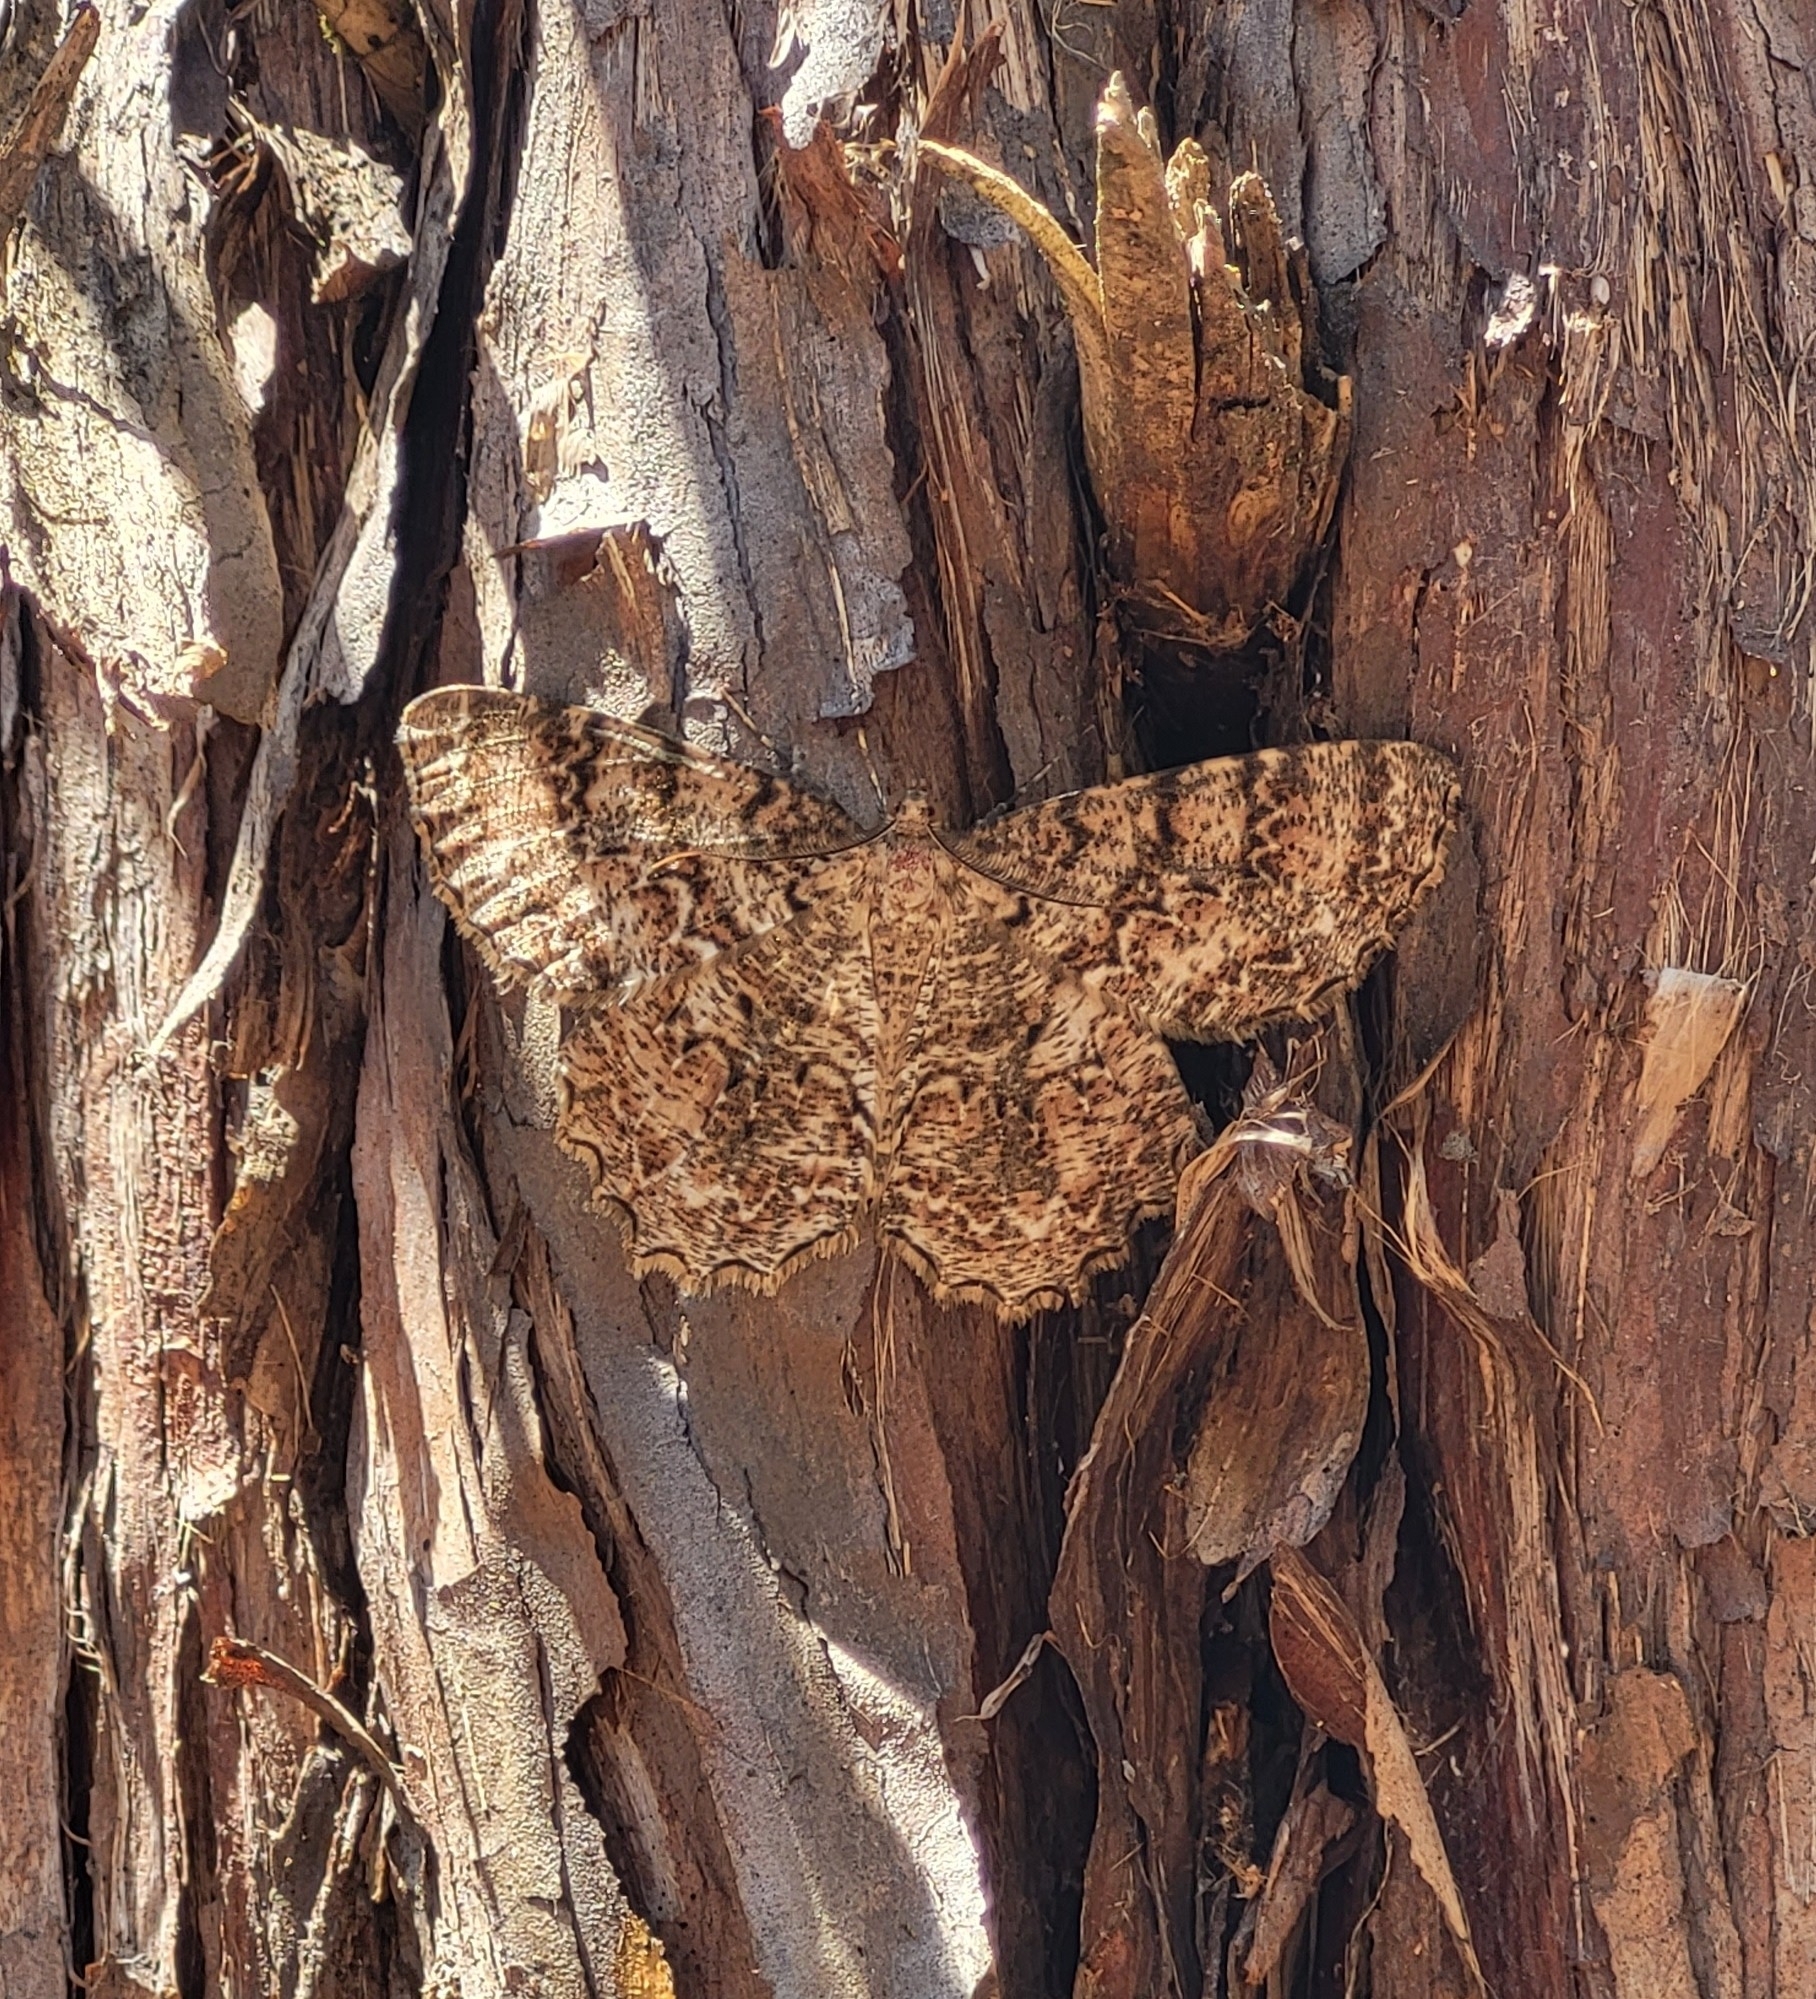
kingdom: Animalia
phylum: Arthropoda
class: Insecta
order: Lepidoptera
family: Geometridae
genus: Epimecis
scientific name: Epimecis hortaria
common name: Tulip-tree beauty
